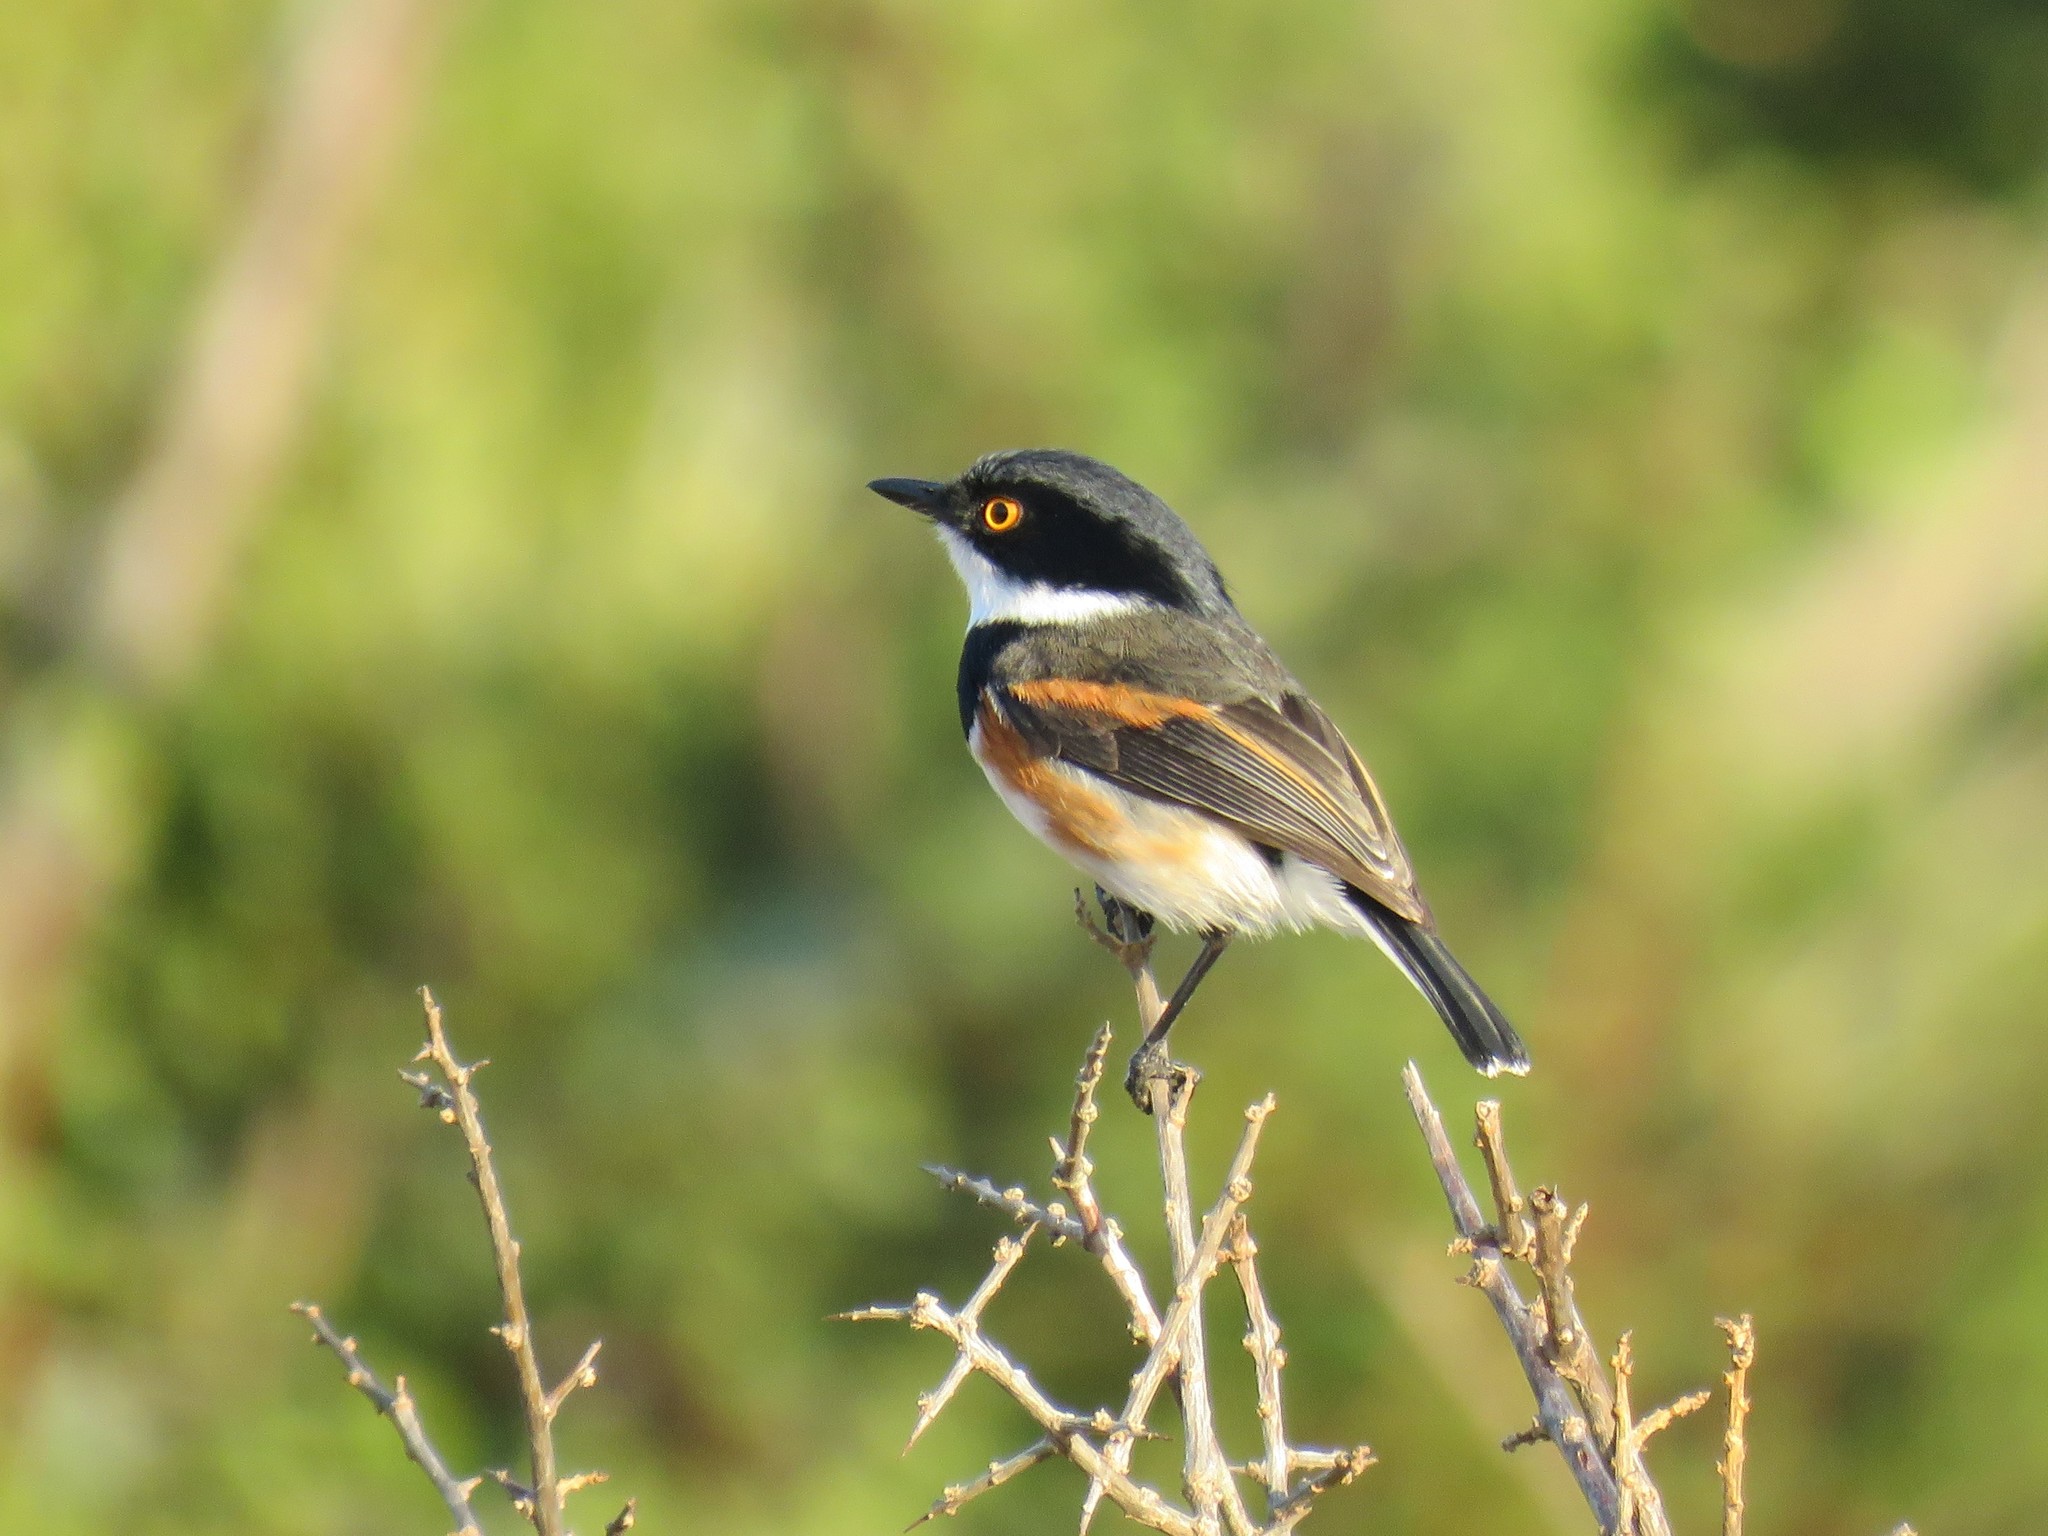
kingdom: Animalia
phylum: Chordata
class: Aves
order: Passeriformes
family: Platysteiridae
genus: Batis
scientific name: Batis capensis
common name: Cape batis
